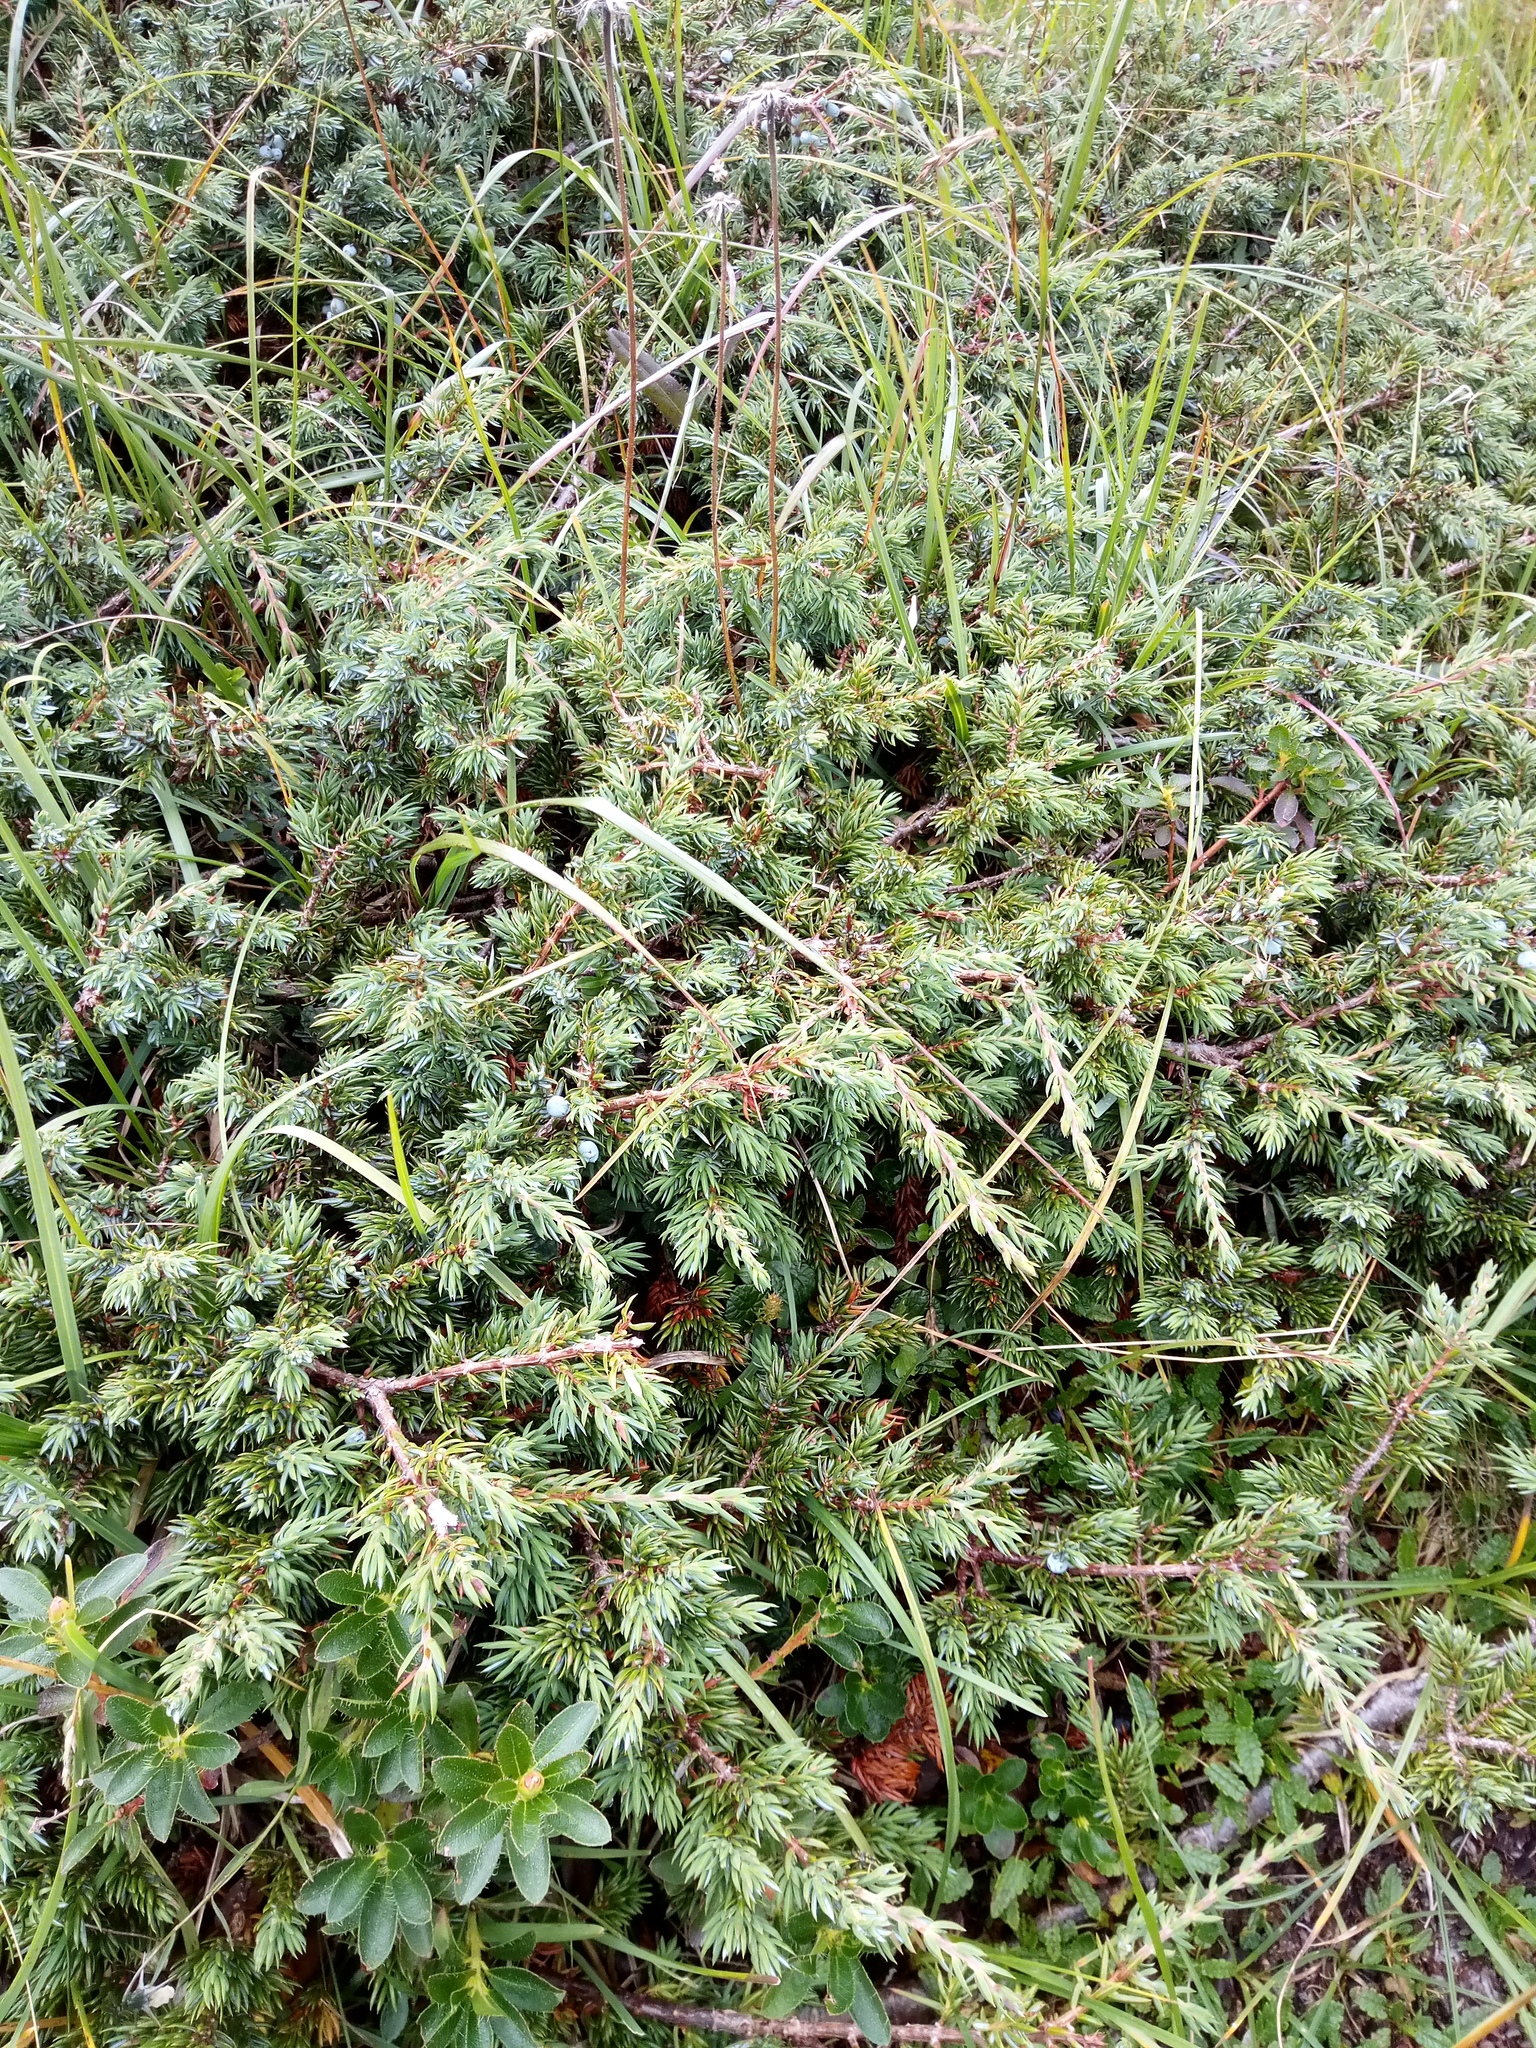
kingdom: Plantae
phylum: Tracheophyta
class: Pinopsida
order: Pinales
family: Cupressaceae
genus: Juniperus
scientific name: Juniperus communis
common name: Common juniper
